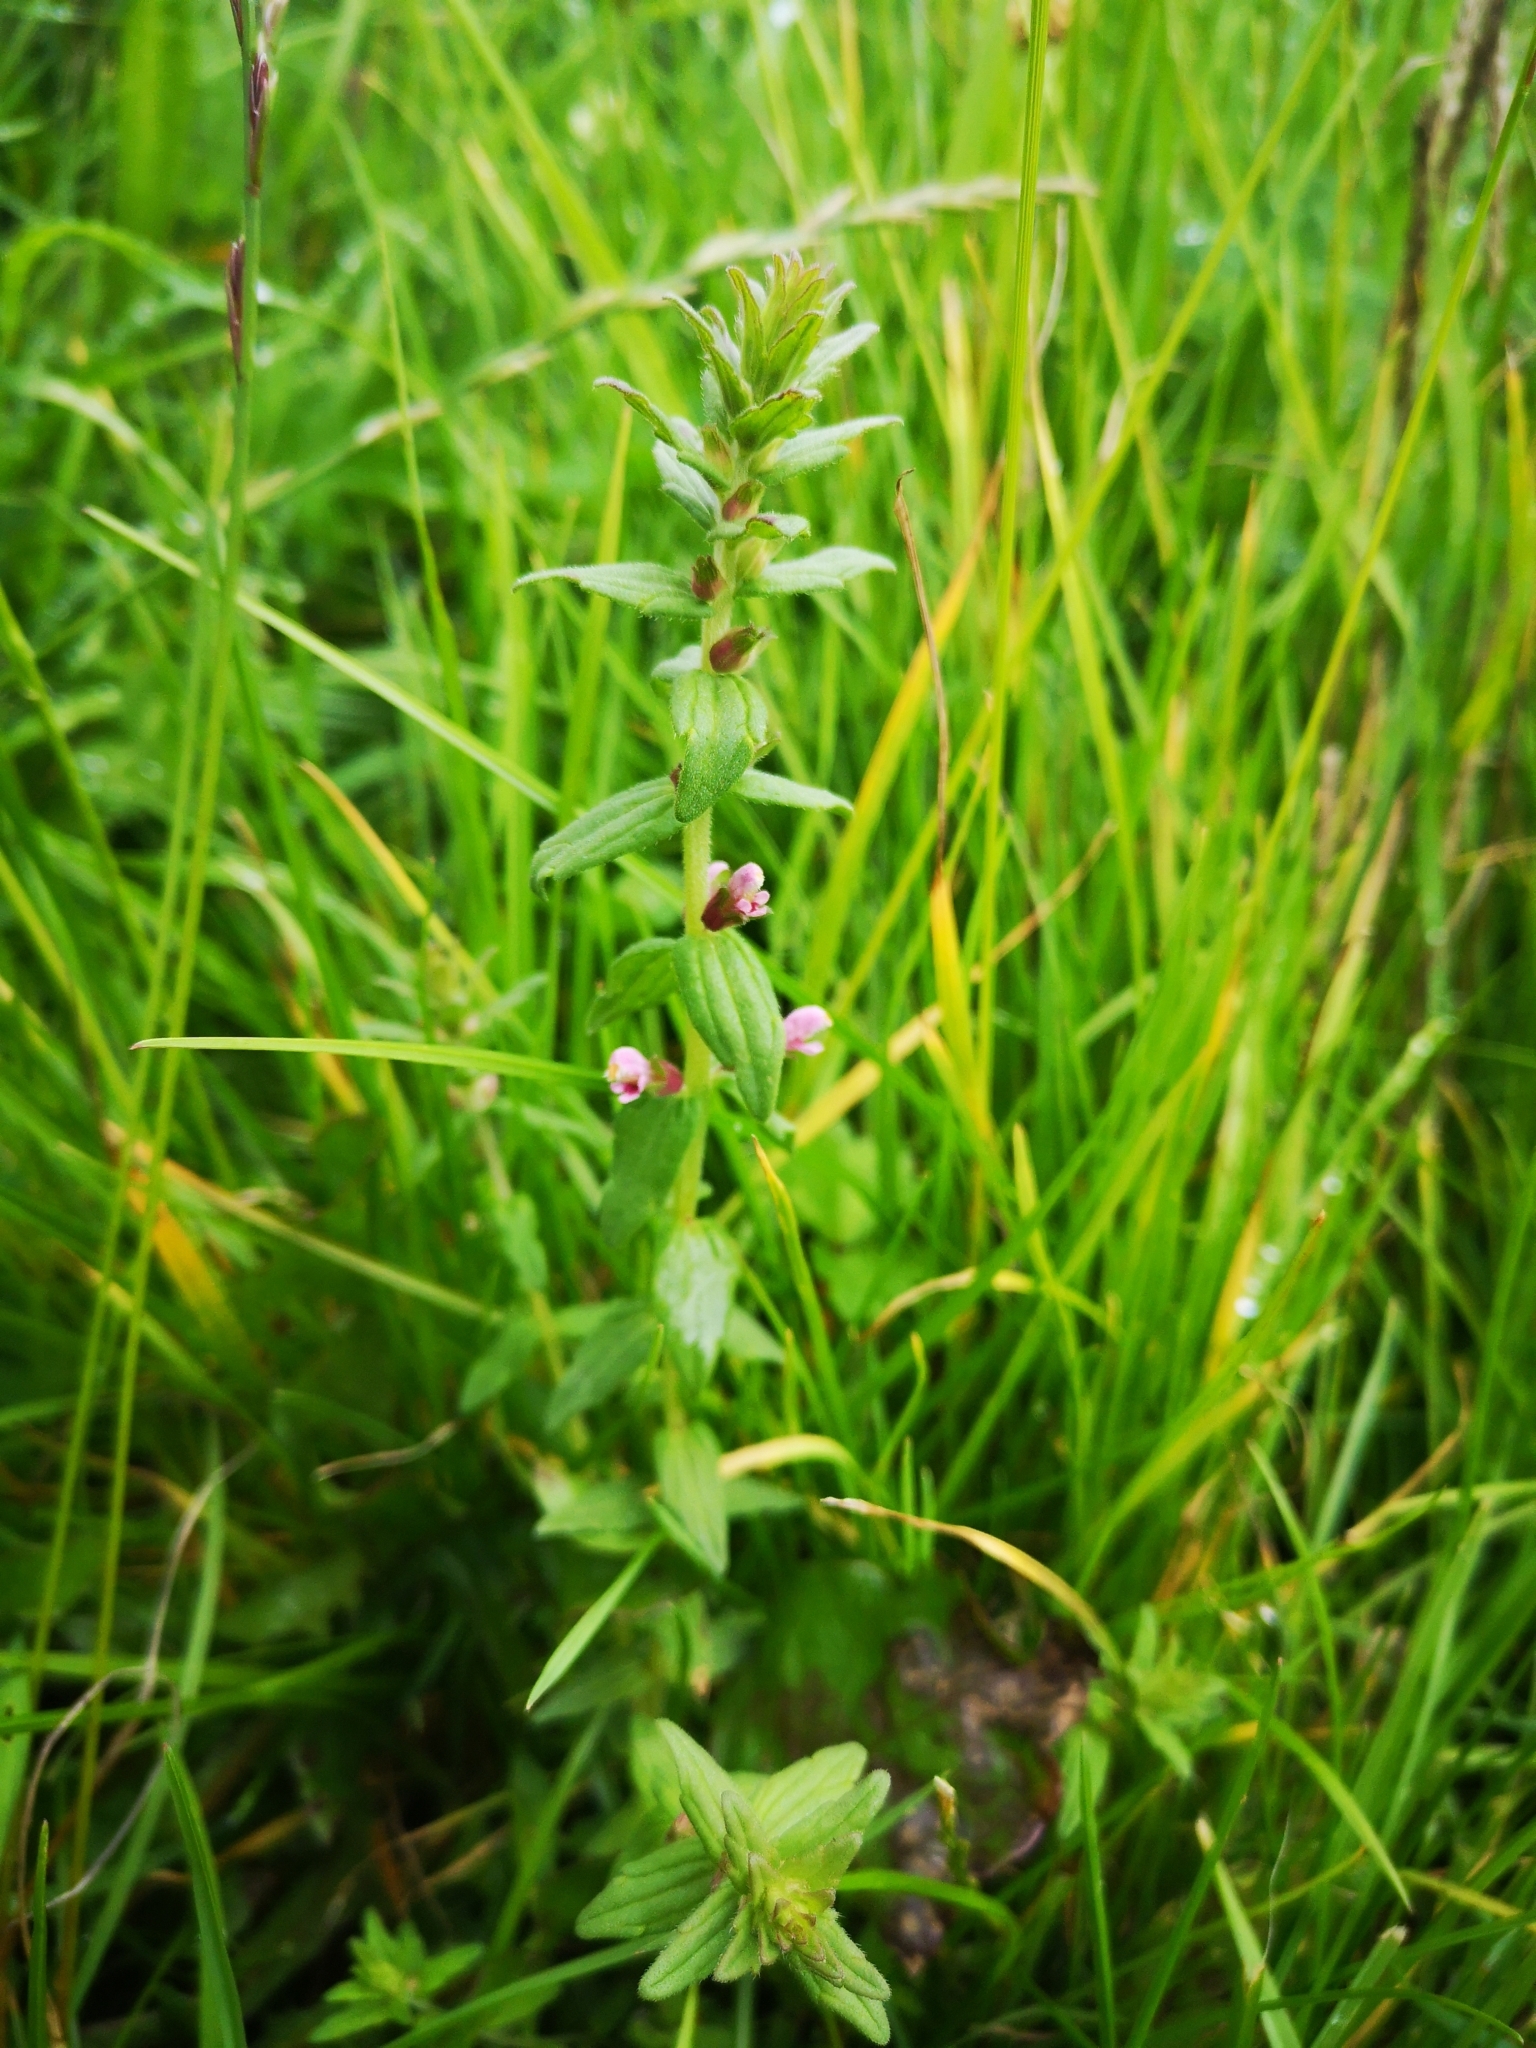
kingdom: Plantae
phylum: Tracheophyta
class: Magnoliopsida
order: Lamiales
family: Orobanchaceae
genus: Odontites
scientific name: Odontites vernus
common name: Red bartsia
